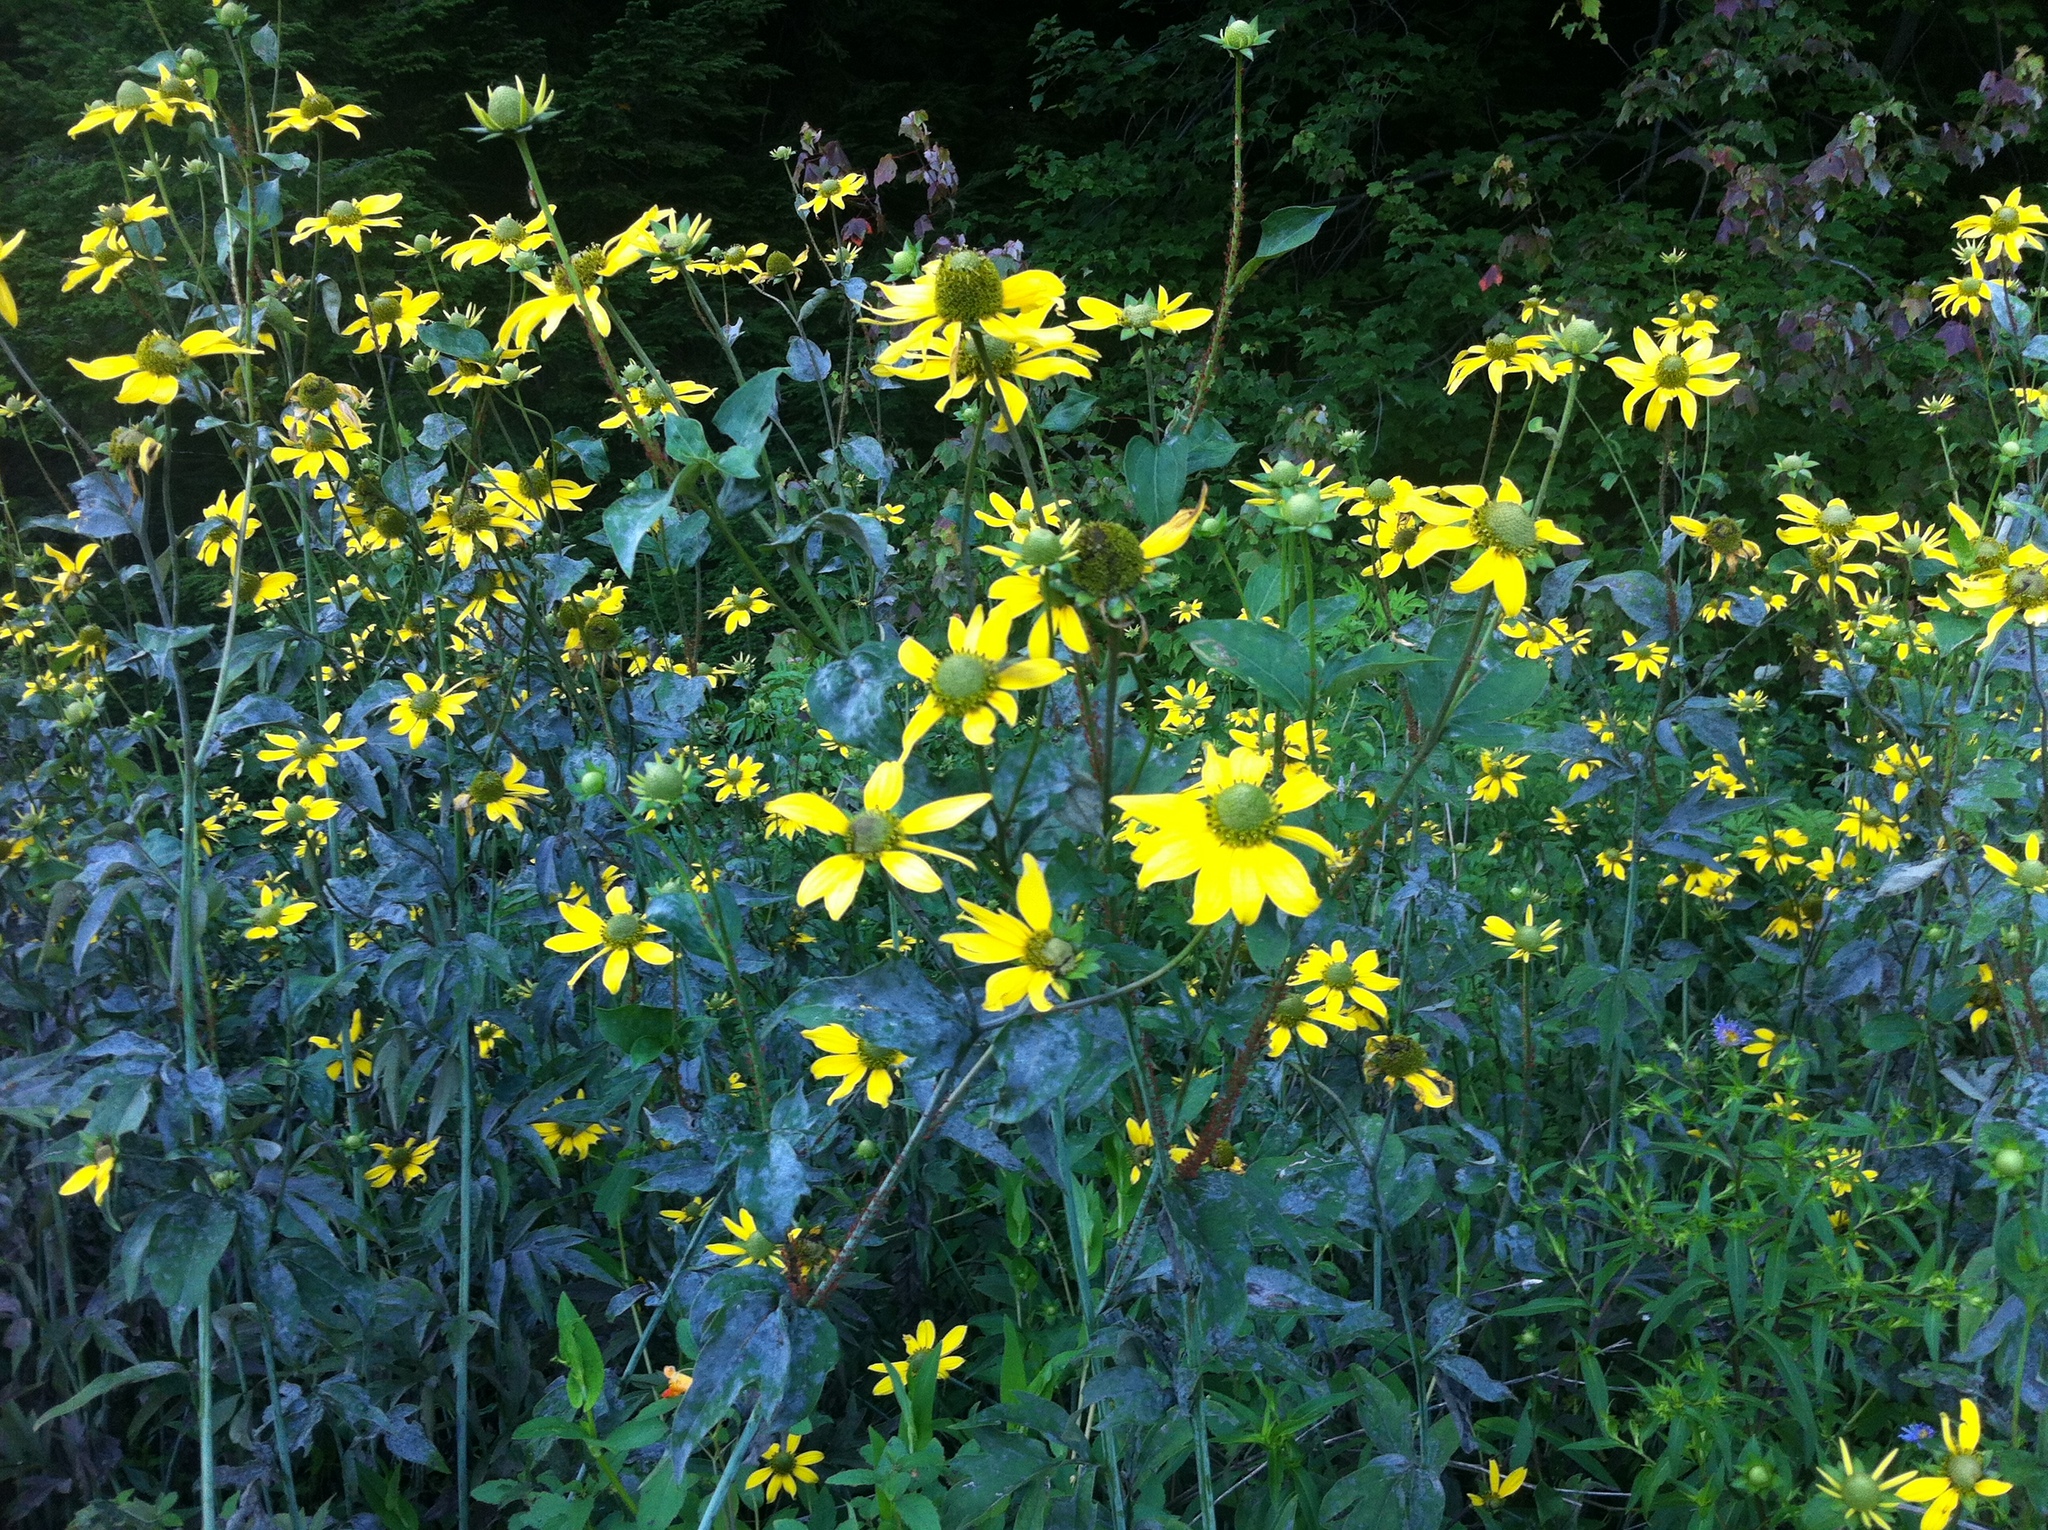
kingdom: Plantae
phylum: Tracheophyta
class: Magnoliopsida
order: Asterales
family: Asteraceae
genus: Rudbeckia
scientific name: Rudbeckia laciniata
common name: Coneflower
